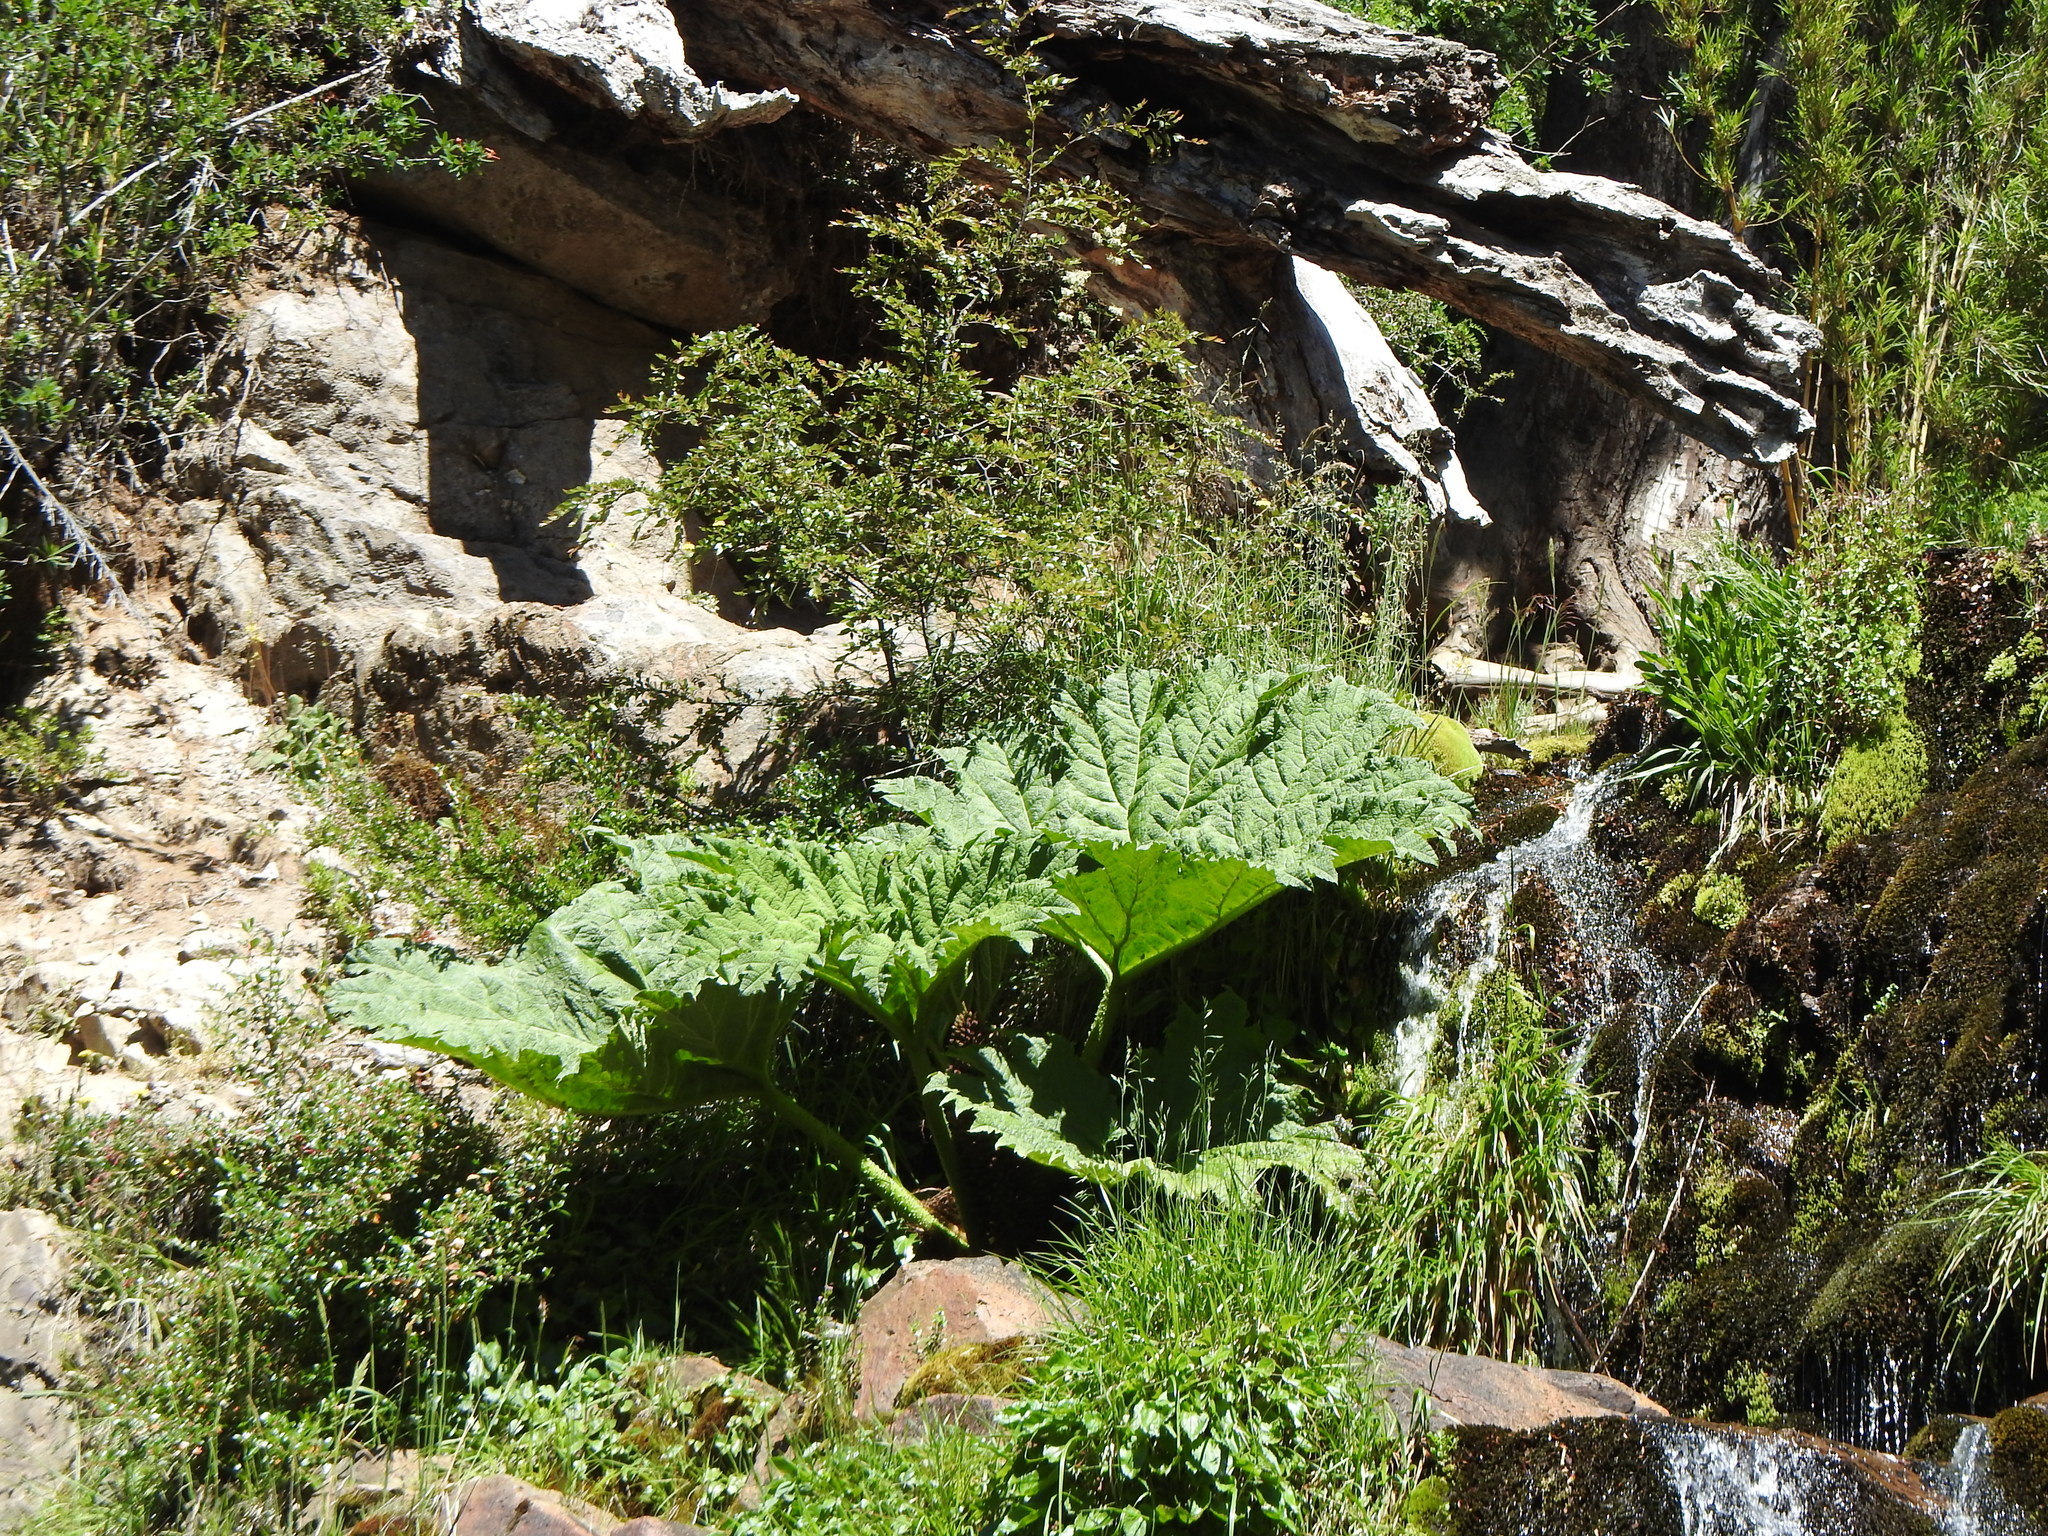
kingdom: Plantae
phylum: Tracheophyta
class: Magnoliopsida
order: Gunnerales
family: Gunneraceae
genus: Gunnera
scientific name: Gunnera tinctoria
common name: Giant-rhubarb
